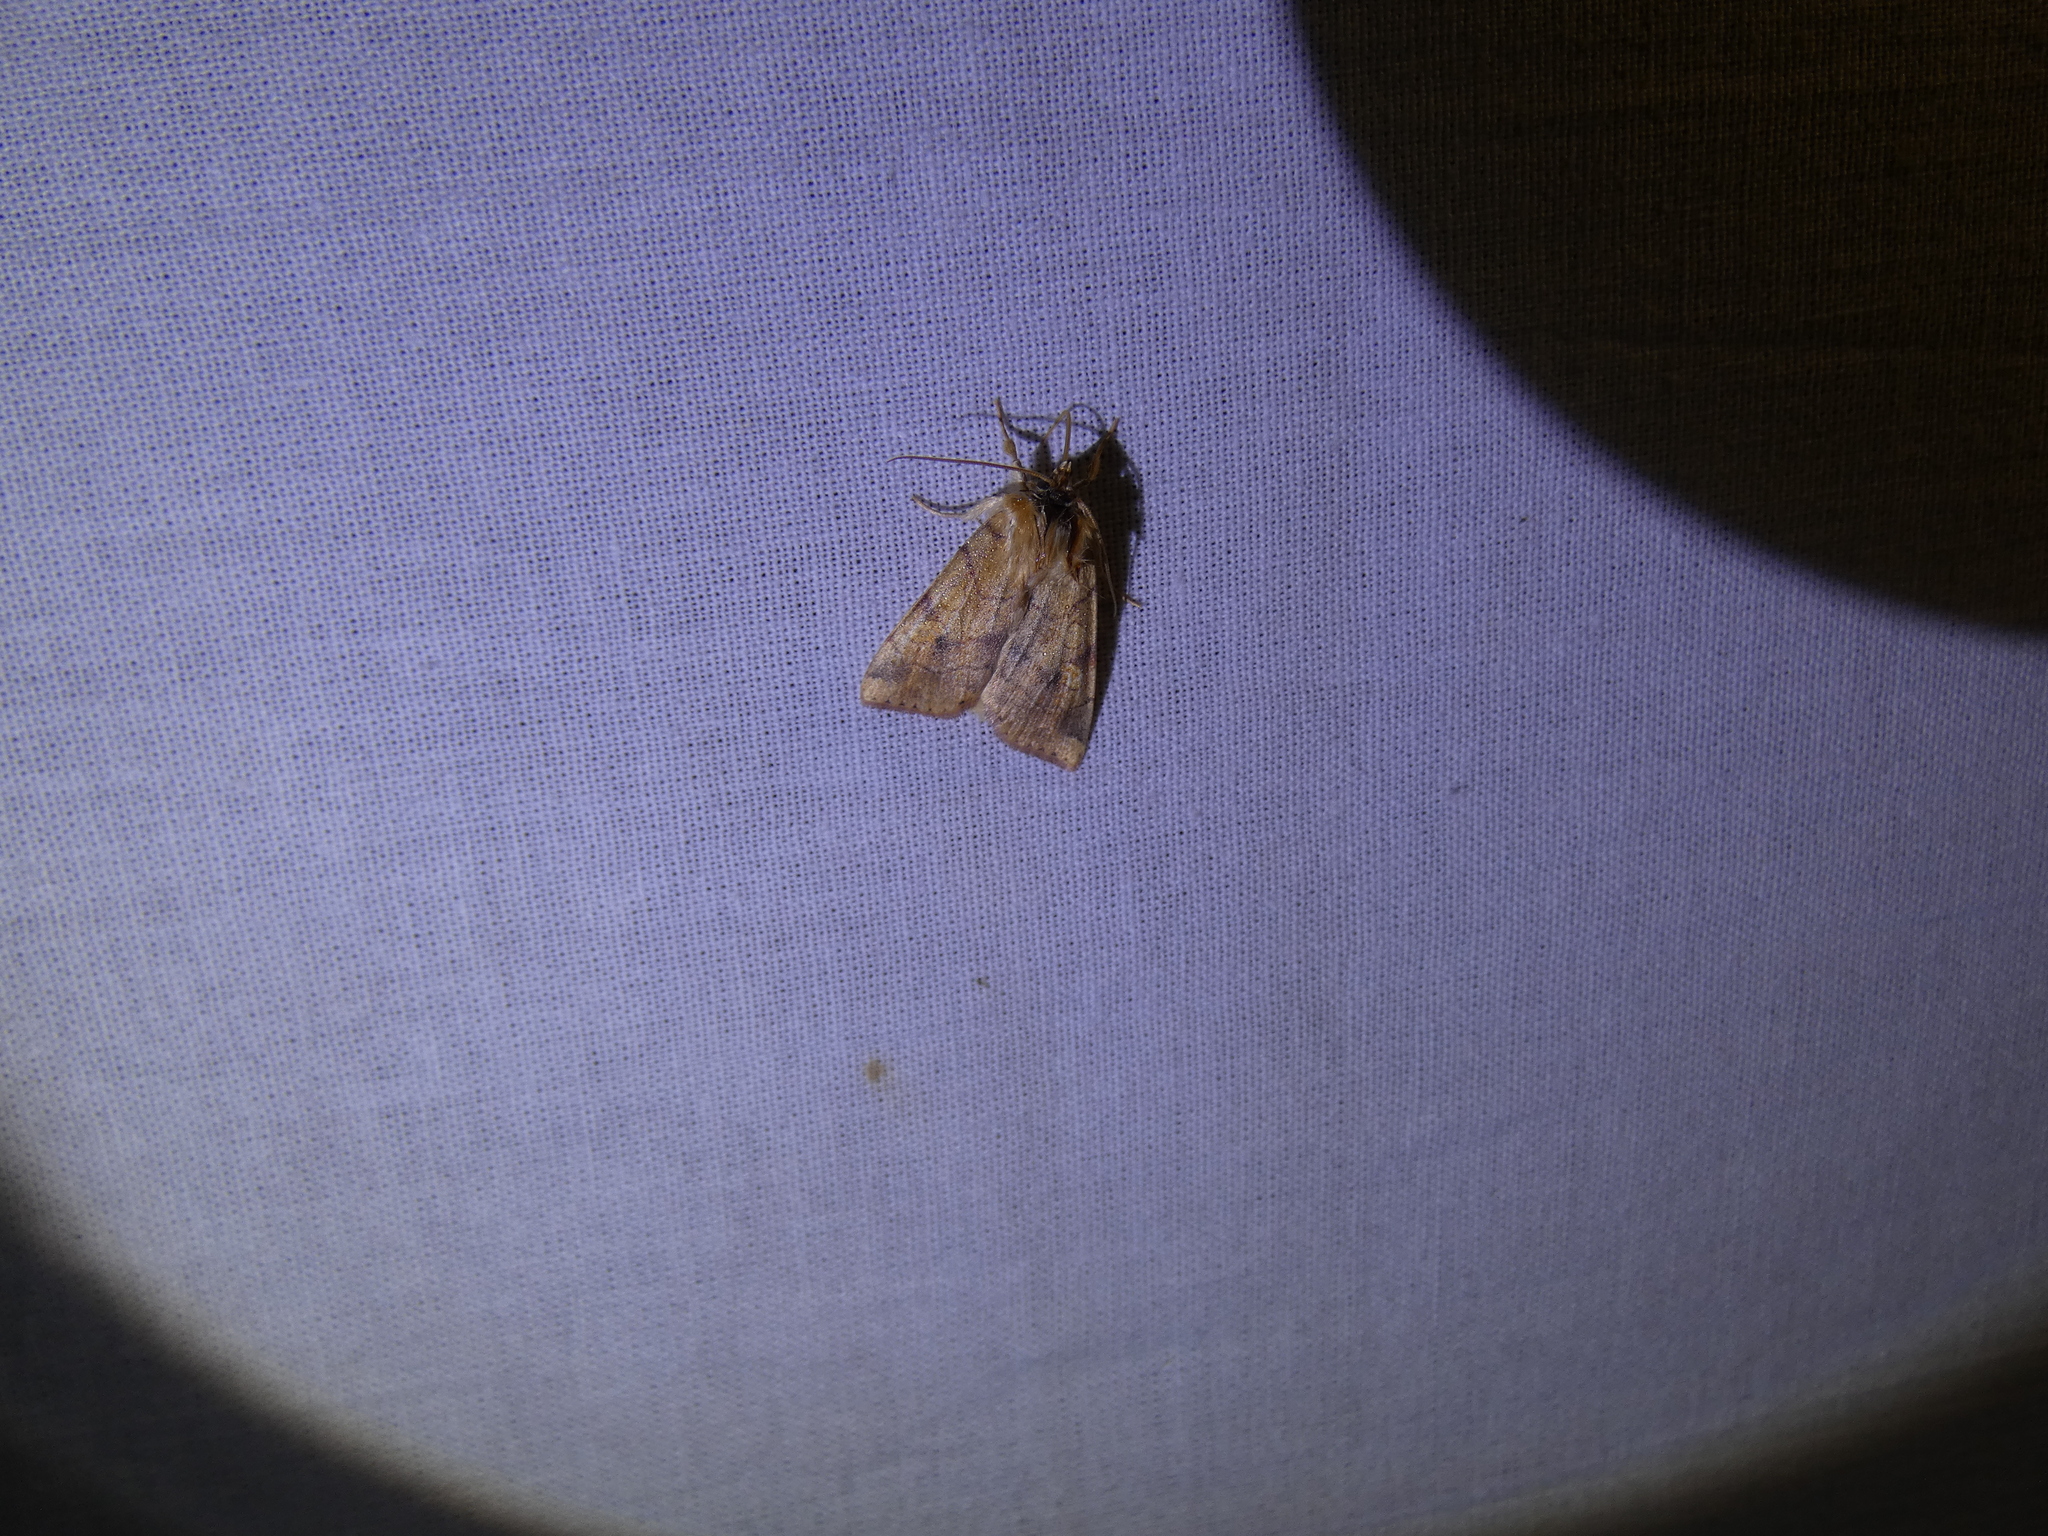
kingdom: Animalia
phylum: Arthropoda
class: Insecta
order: Lepidoptera
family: Noctuidae
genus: Enargia
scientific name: Enargia paleacea
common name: Angle-striped sallow
